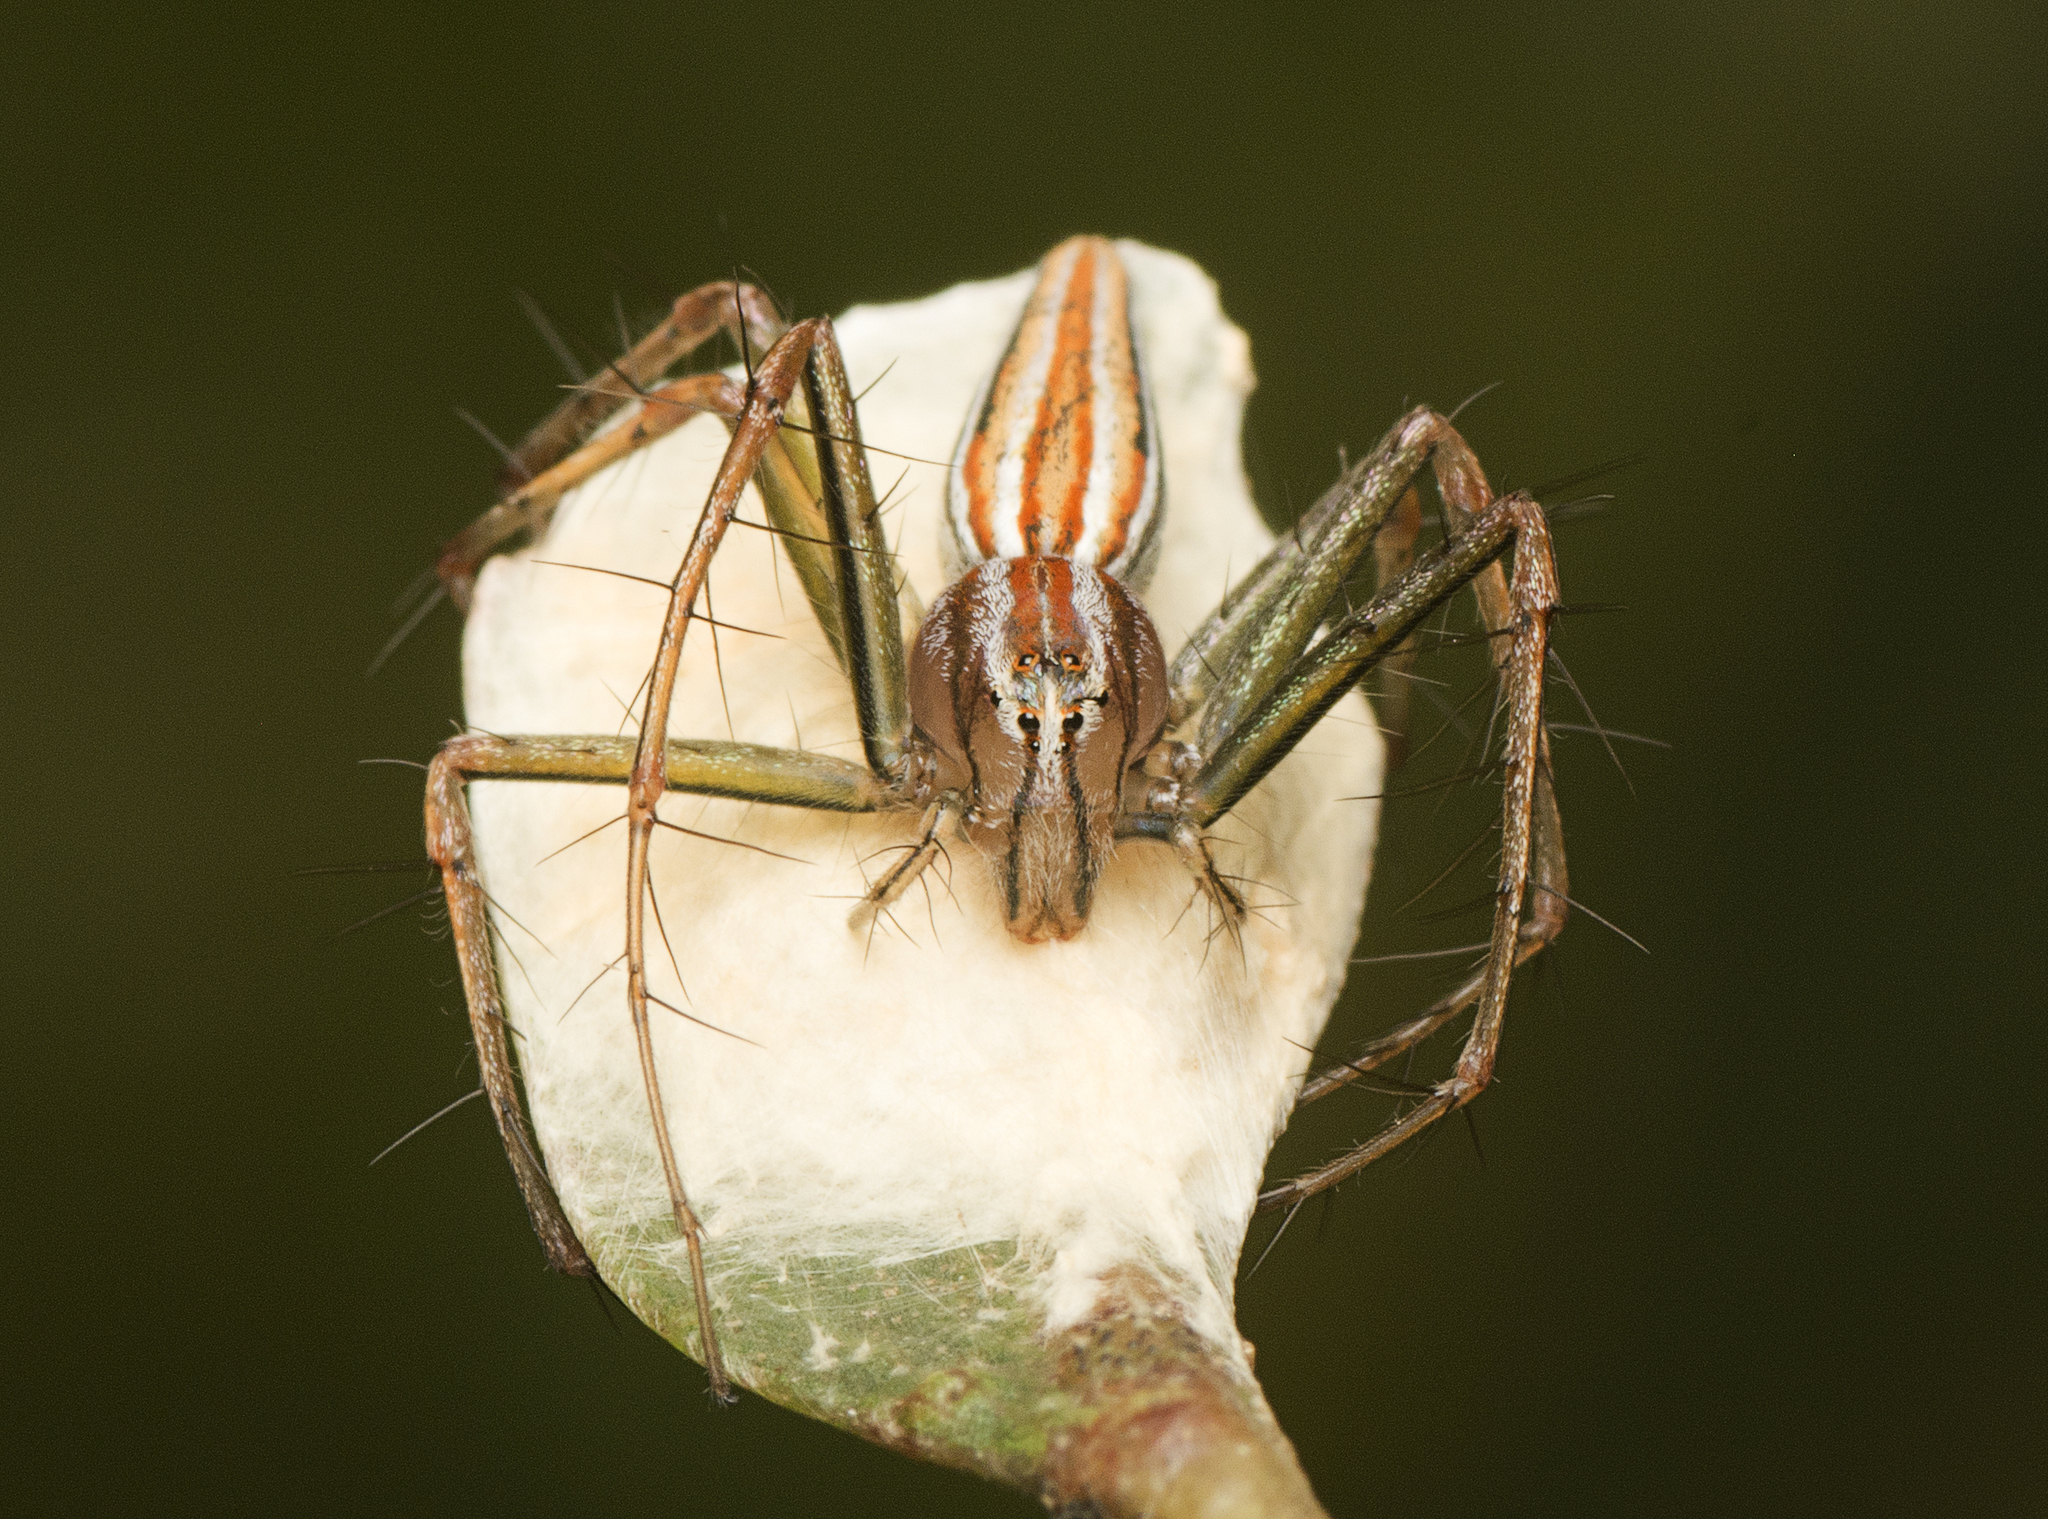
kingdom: Animalia
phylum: Arthropoda
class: Arachnida
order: Araneae
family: Oxyopidae
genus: Oxyopes
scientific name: Oxyopes macilentus
